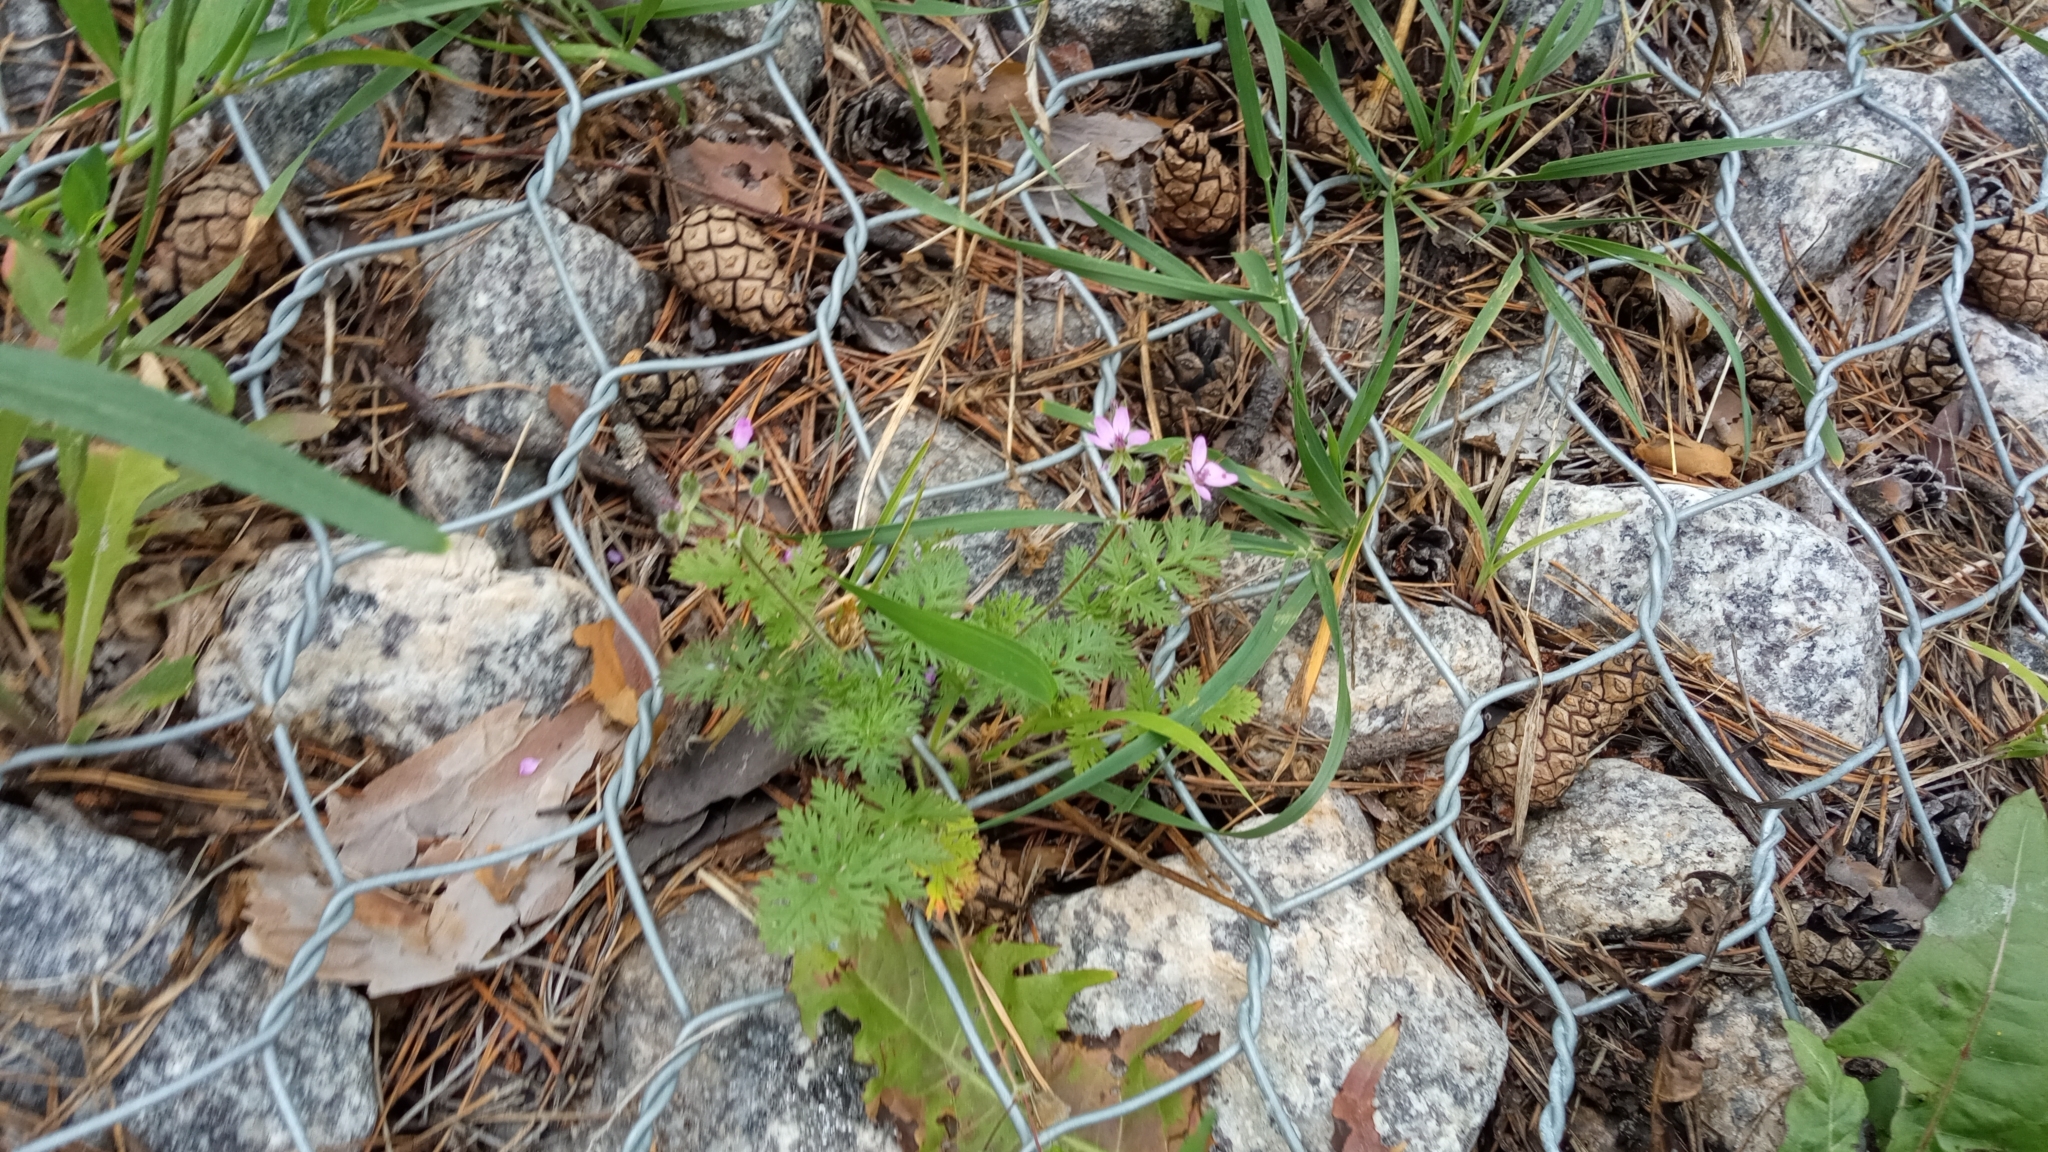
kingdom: Plantae
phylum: Tracheophyta
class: Magnoliopsida
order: Geraniales
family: Geraniaceae
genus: Erodium
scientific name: Erodium cicutarium
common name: Common stork's-bill
